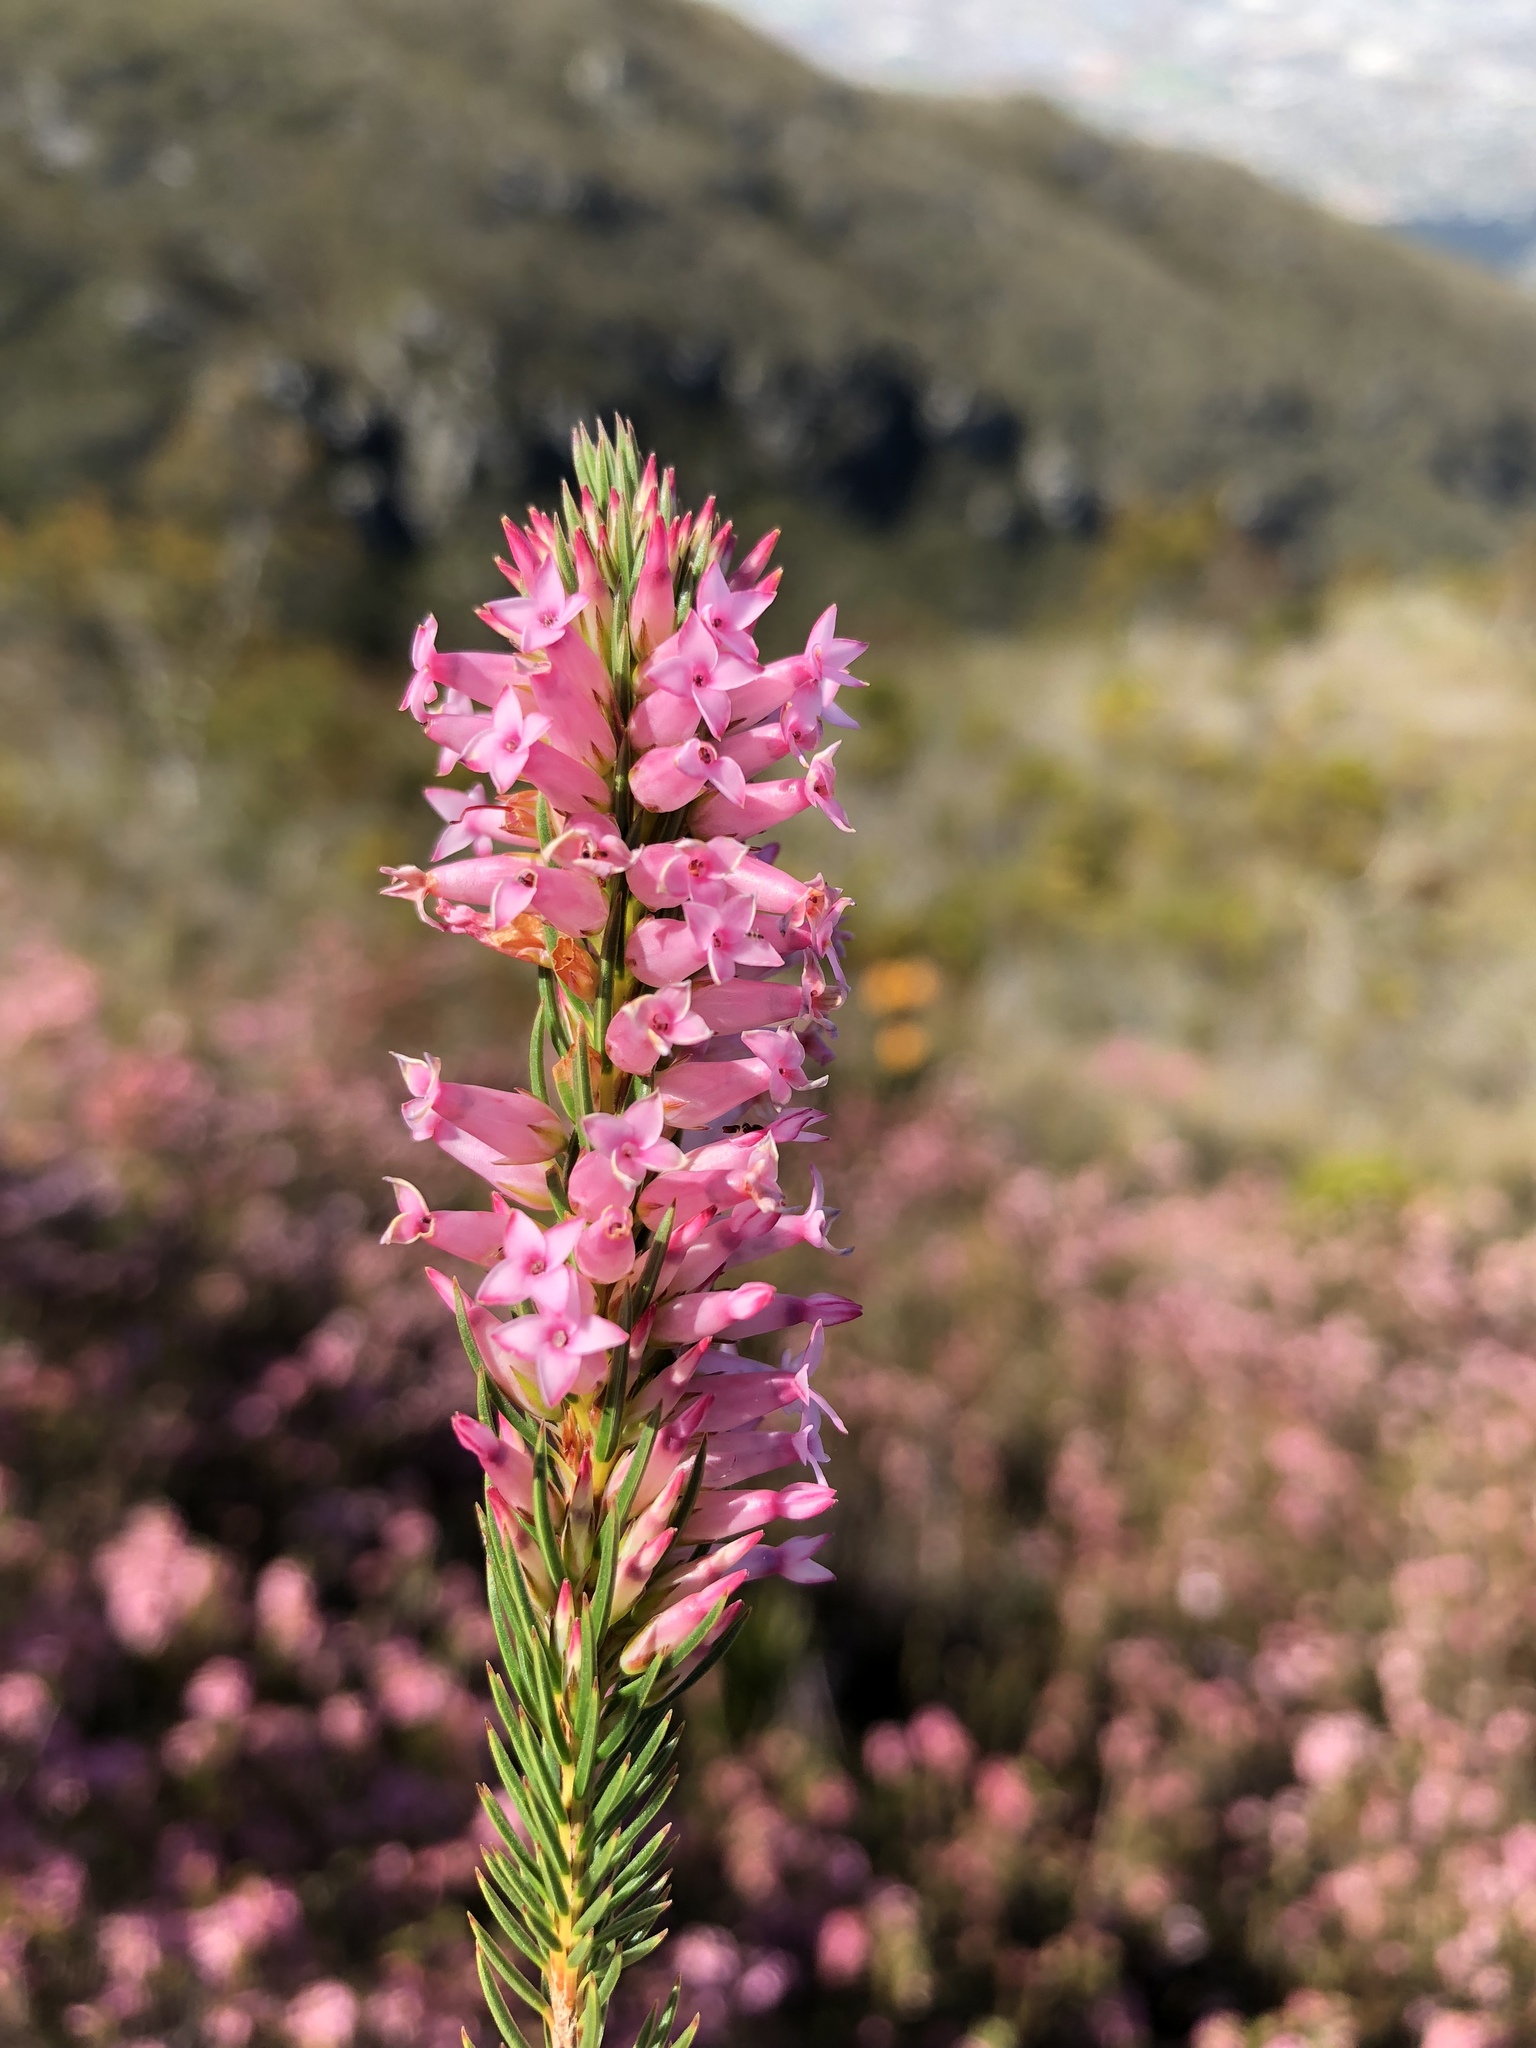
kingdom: Plantae
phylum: Tracheophyta
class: Magnoliopsida
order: Ericales
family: Ericaceae
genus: Erica
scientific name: Erica georgica
